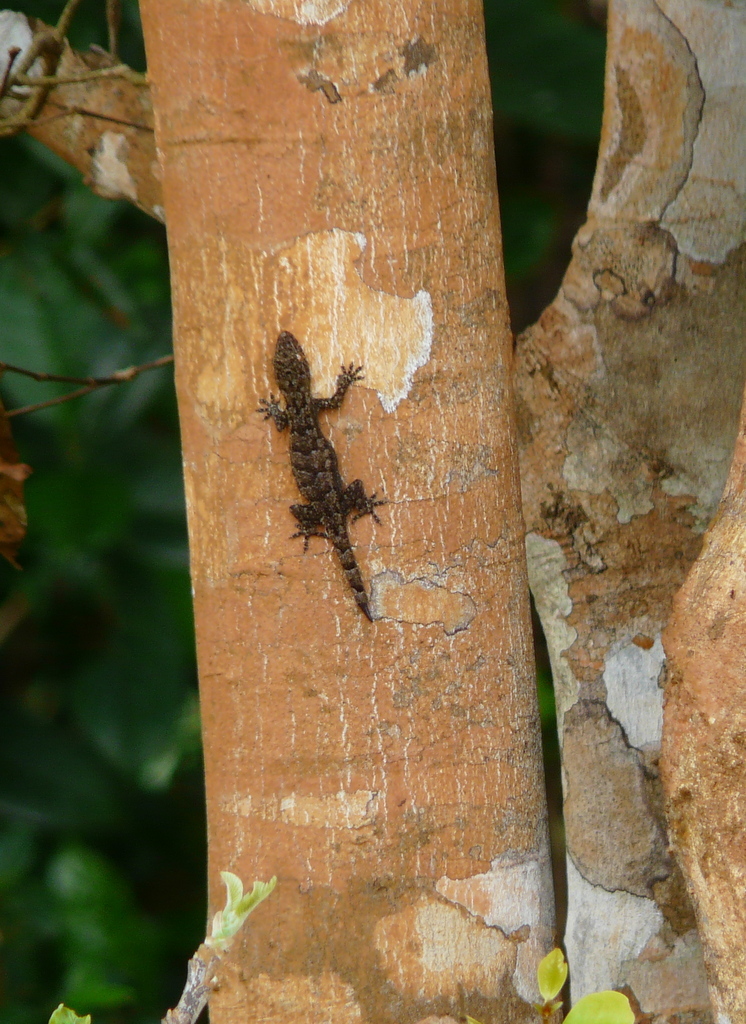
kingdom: Animalia
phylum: Chordata
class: Squamata
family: Gekkonidae
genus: Ancylodactylus
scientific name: Ancylodactylus
